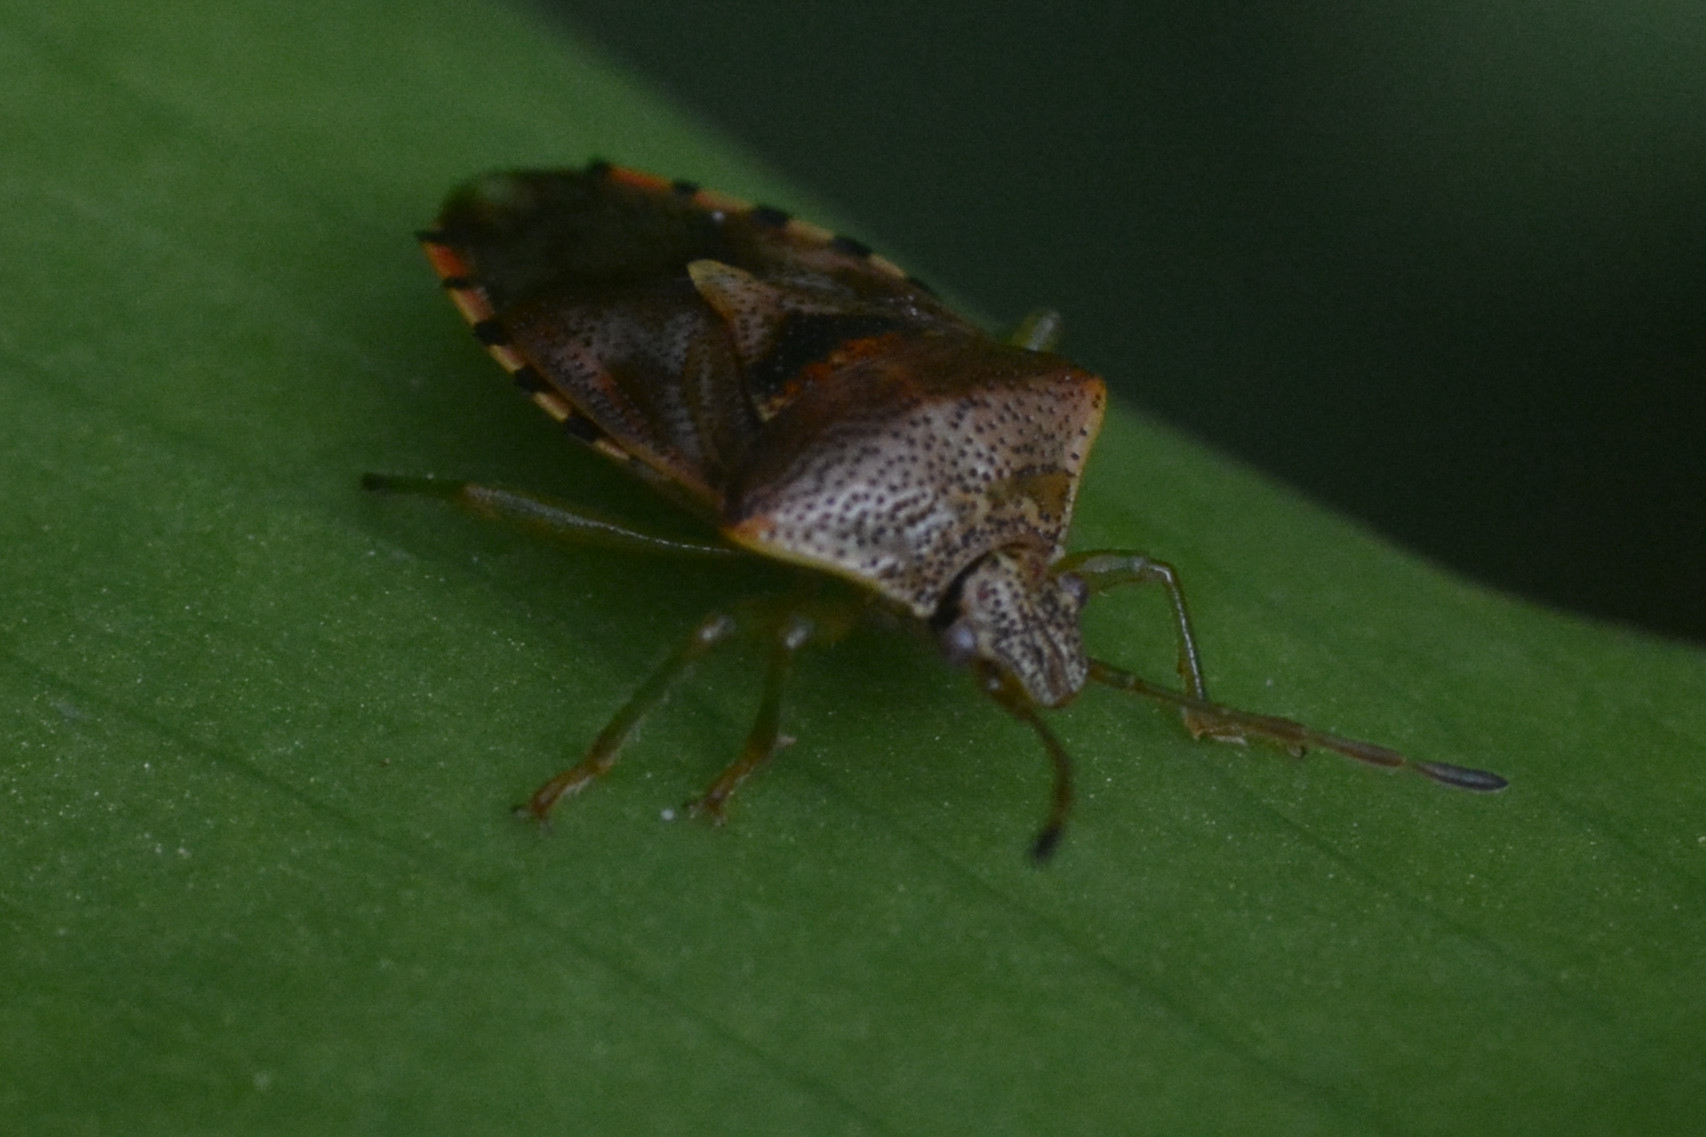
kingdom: Animalia
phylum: Arthropoda
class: Insecta
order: Hemiptera
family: Acanthosomatidae
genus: Elasmucha
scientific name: Elasmucha grisea
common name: Parent bug
